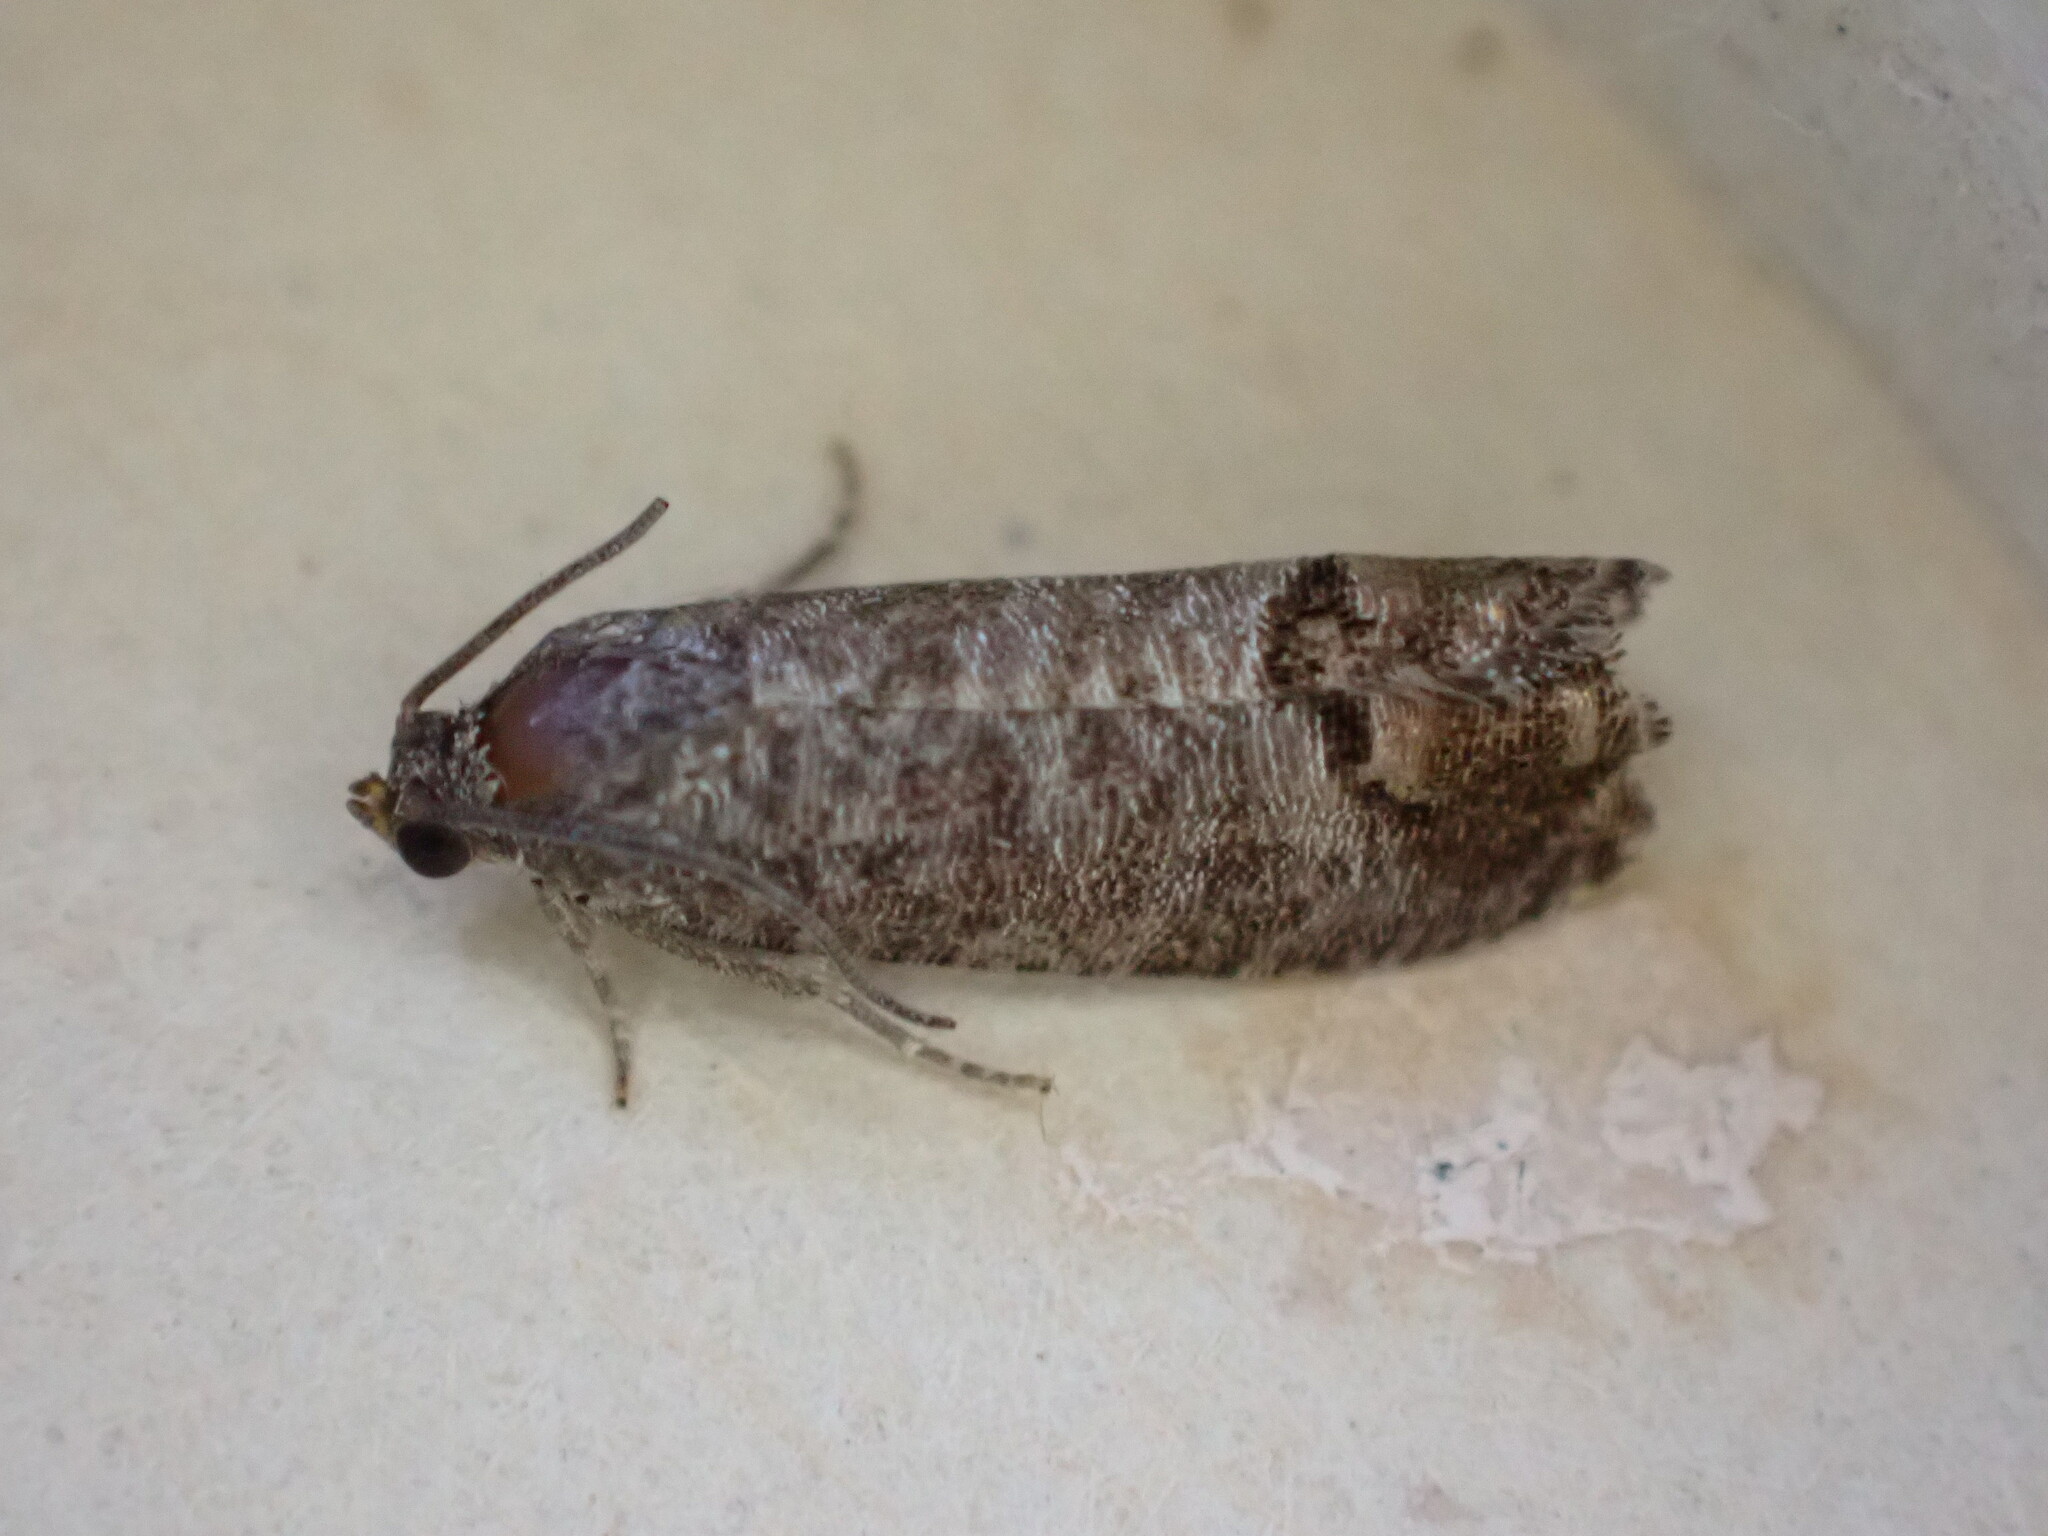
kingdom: Animalia
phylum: Arthropoda
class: Insecta
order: Lepidoptera
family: Tortricidae
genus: Cydia
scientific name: Cydia pomonella
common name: Codling moth
